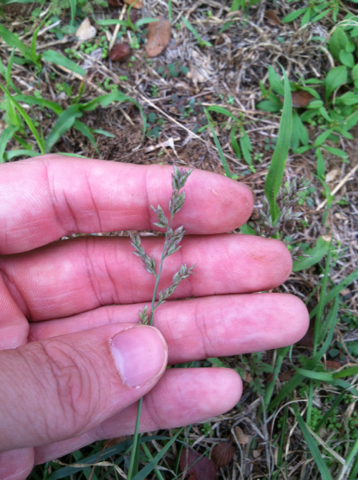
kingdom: Plantae
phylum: Tracheophyta
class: Liliopsida
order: Poales
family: Poaceae
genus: Eragrostis
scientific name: Eragrostis secundiflora
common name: Red love grass
